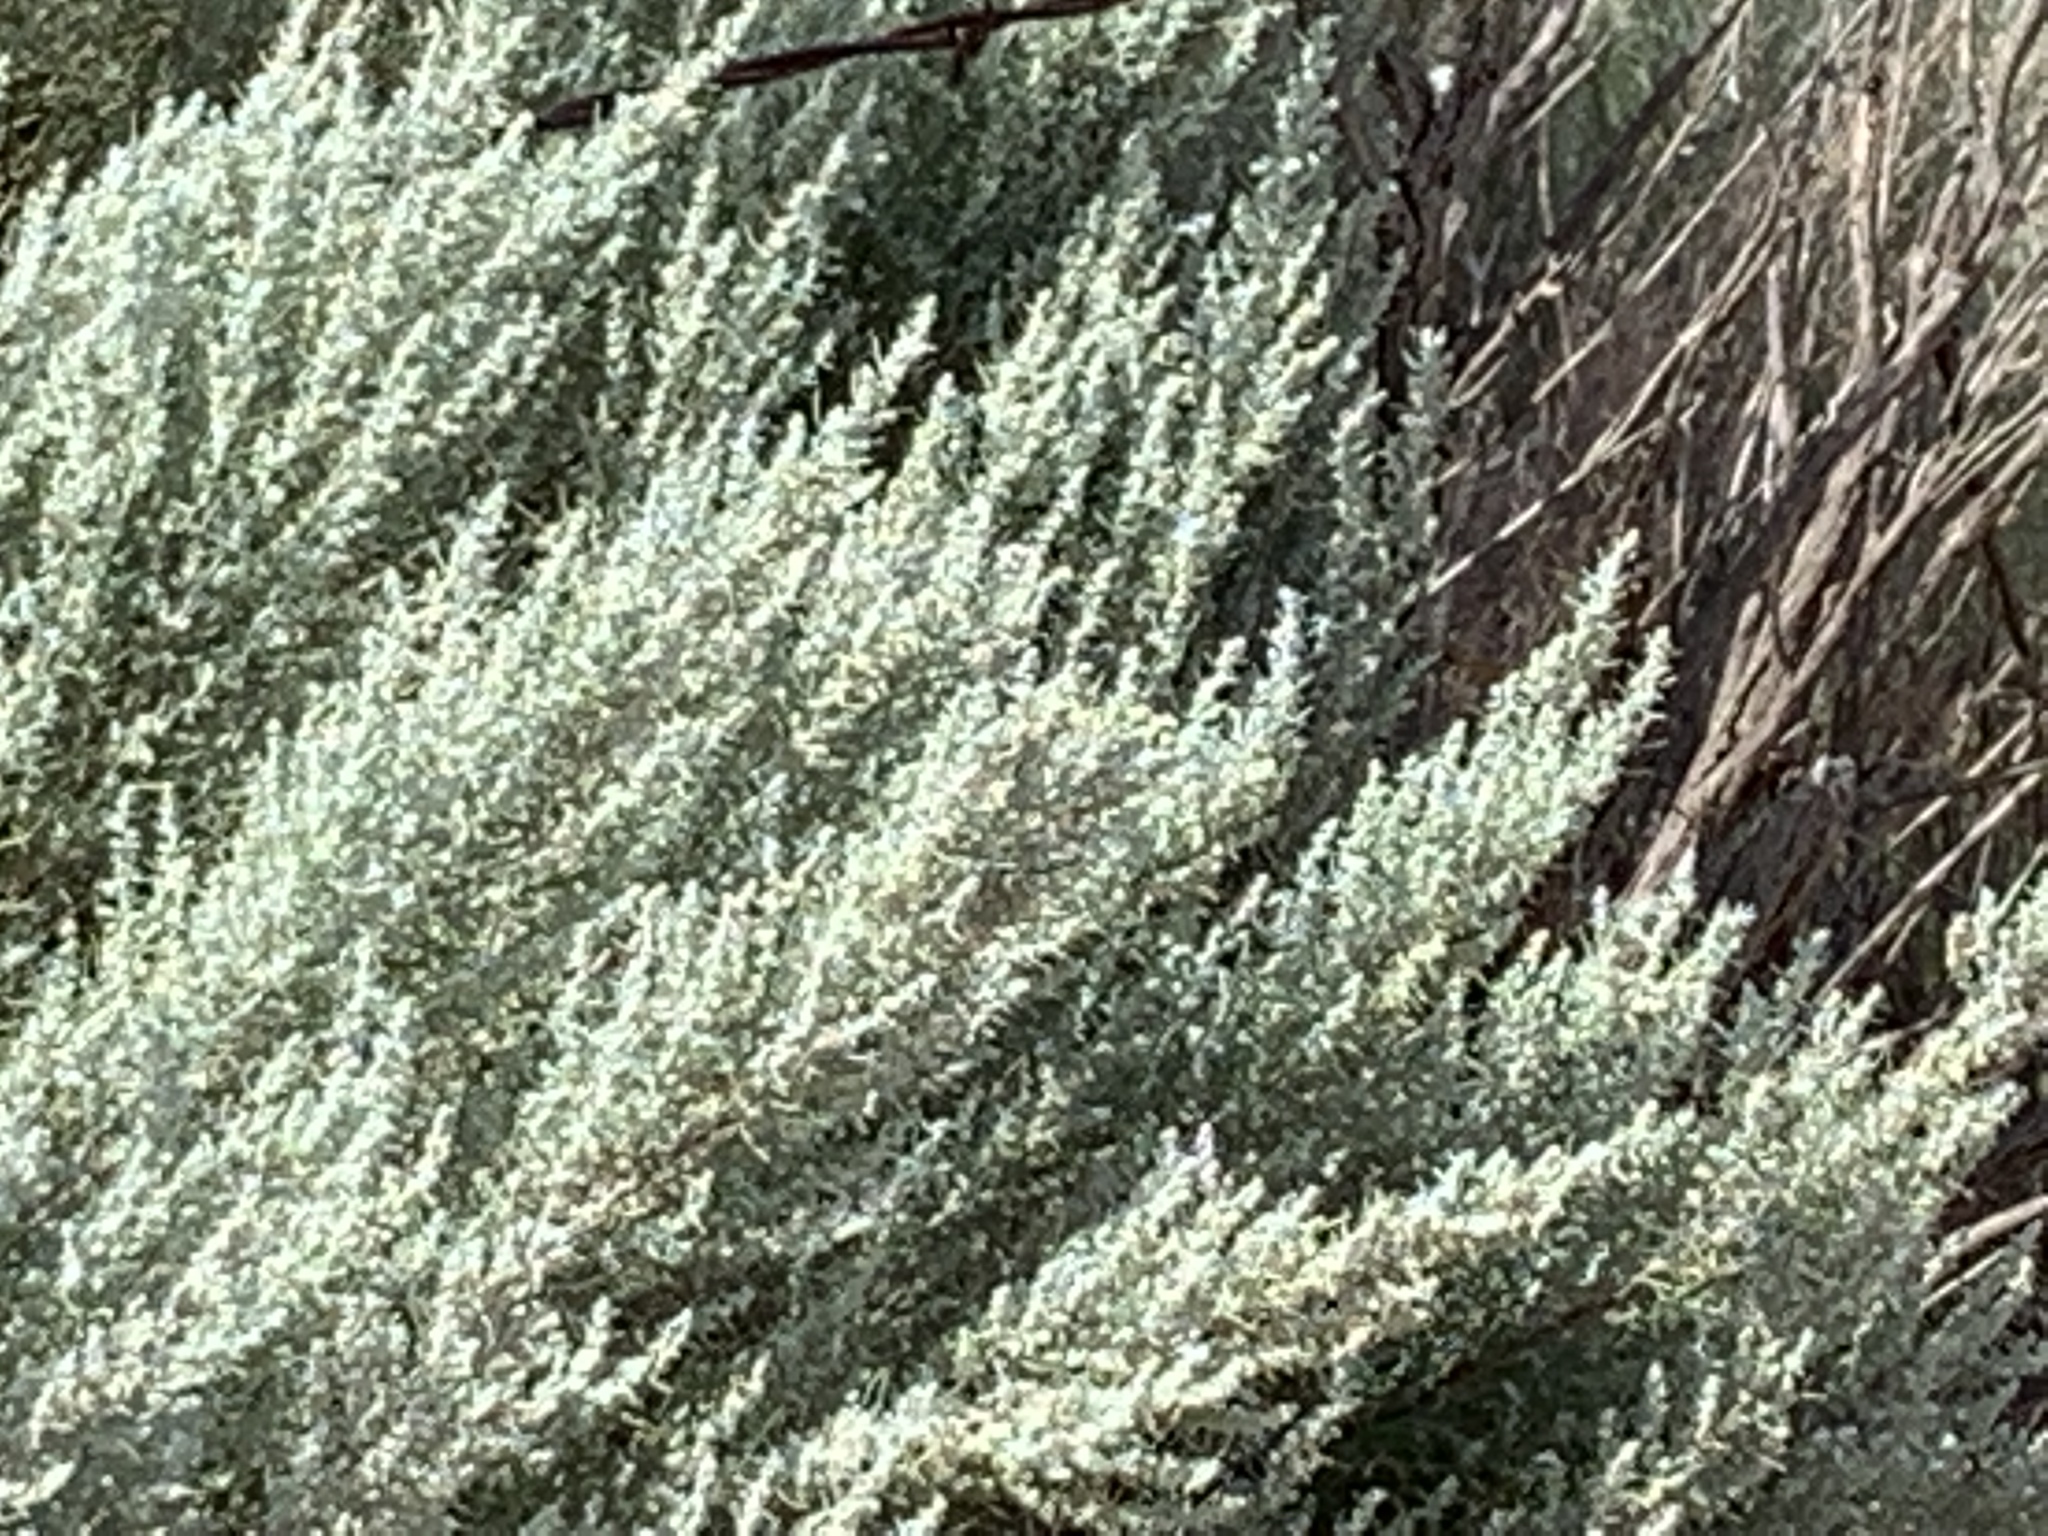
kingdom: Plantae
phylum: Tracheophyta
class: Magnoliopsida
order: Asterales
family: Asteraceae
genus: Artemisia
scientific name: Artemisia filifolia
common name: Sand-sage
